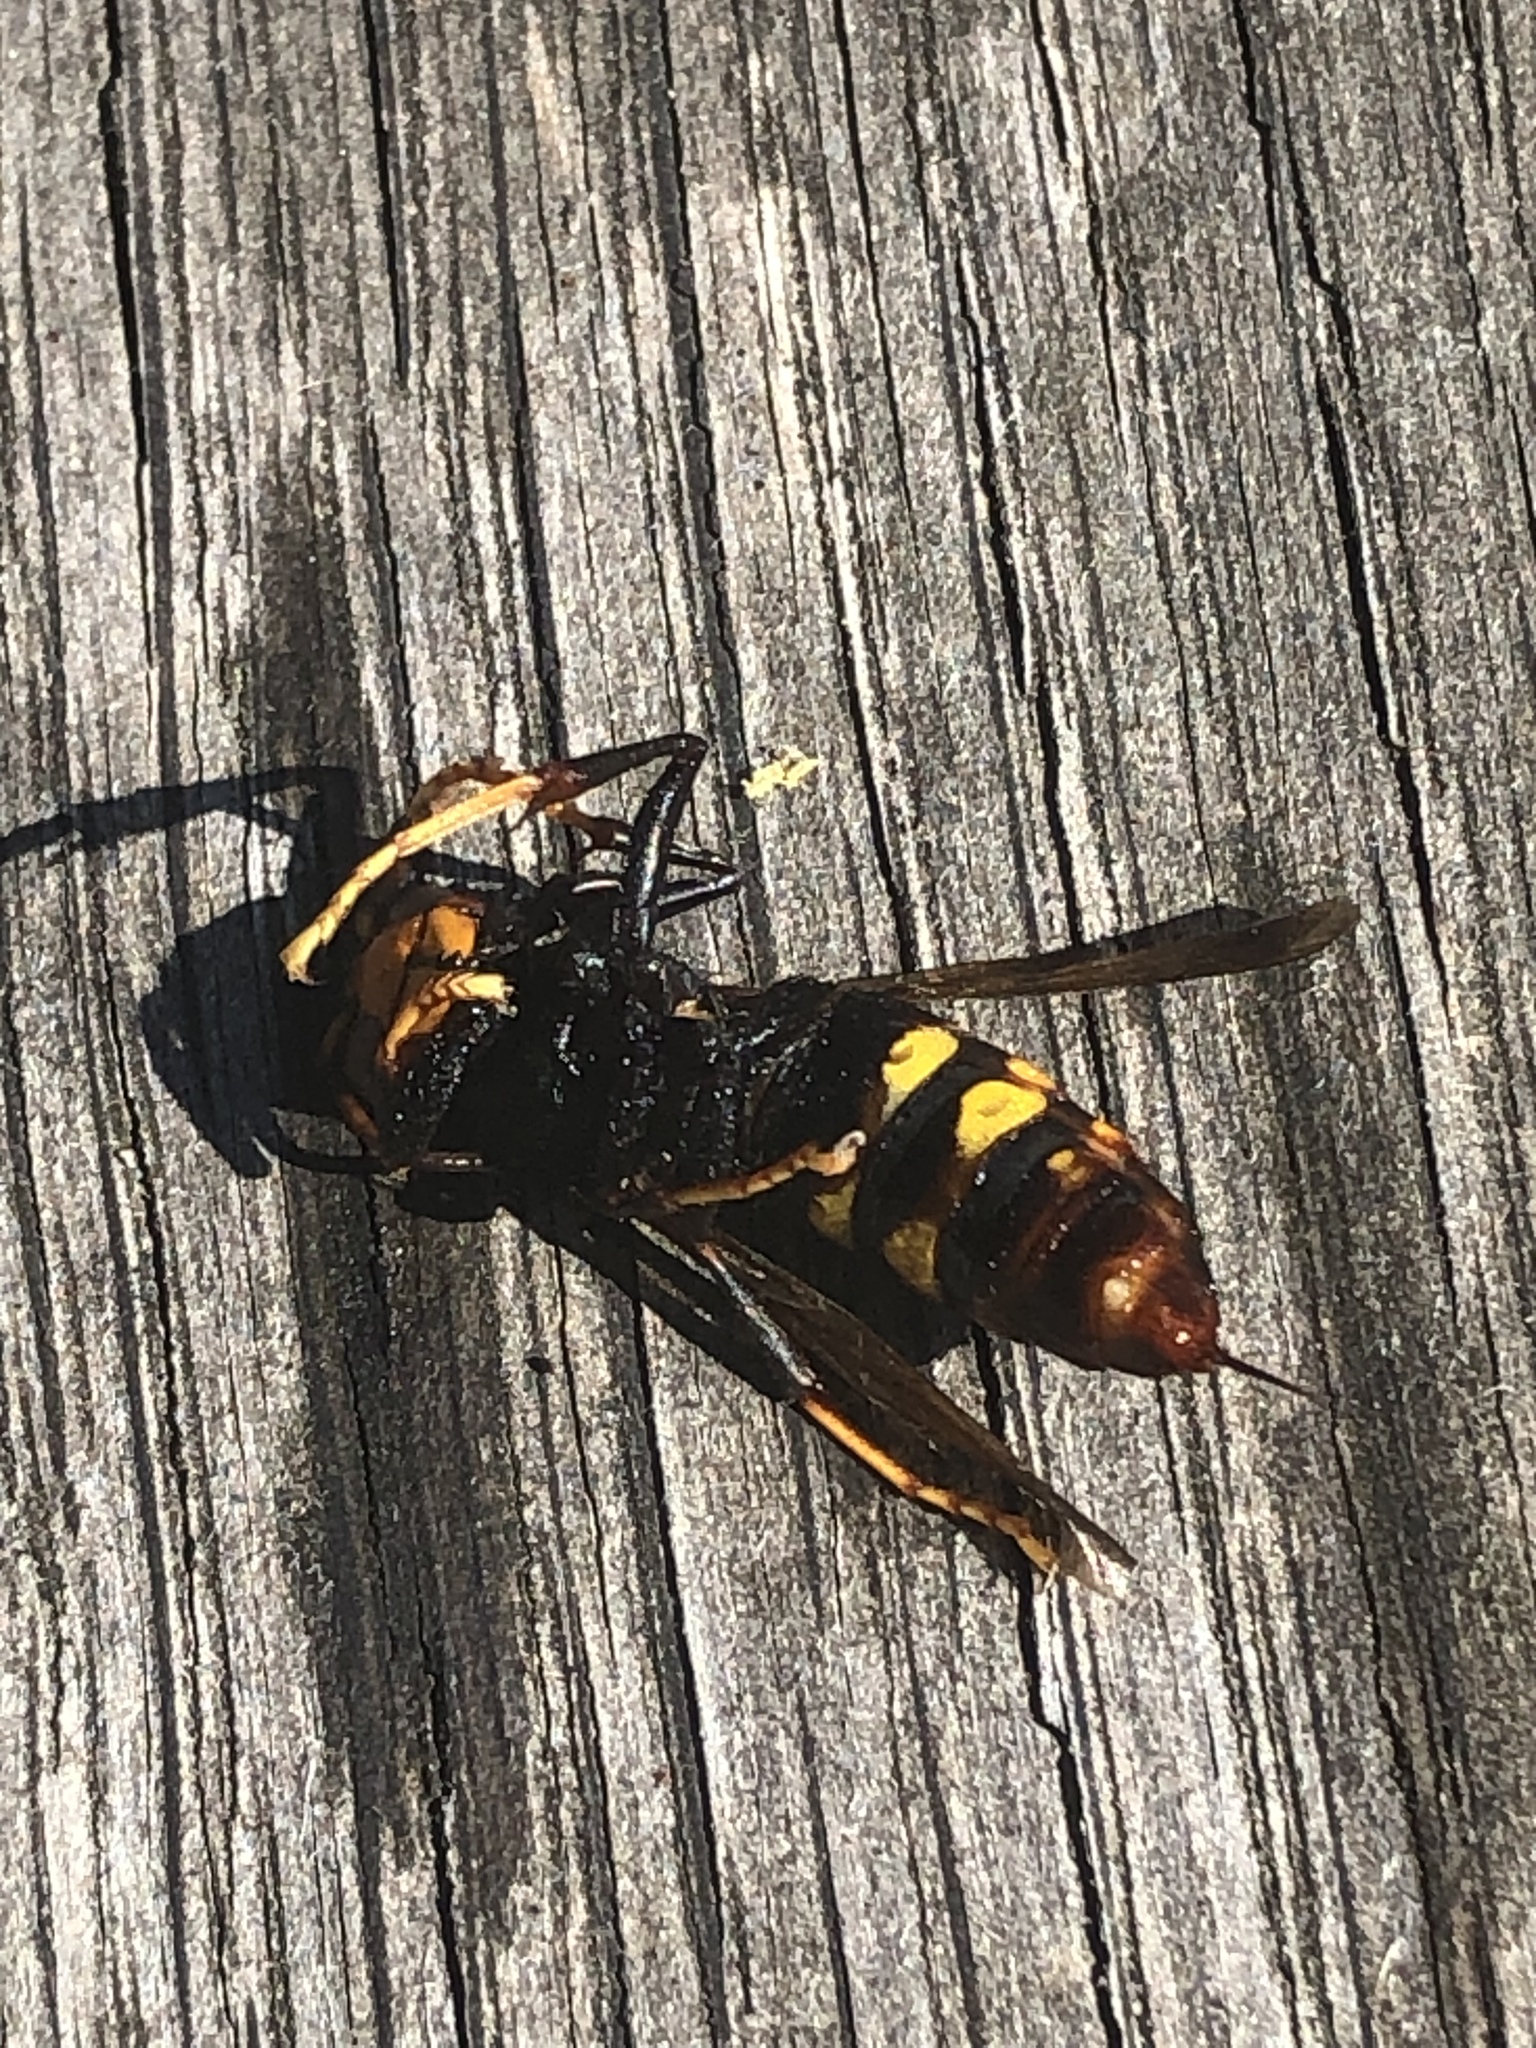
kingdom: Animalia
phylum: Arthropoda
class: Insecta
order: Hymenoptera
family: Vespidae
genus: Vespa
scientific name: Vespa velutina
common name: Asian hornet
